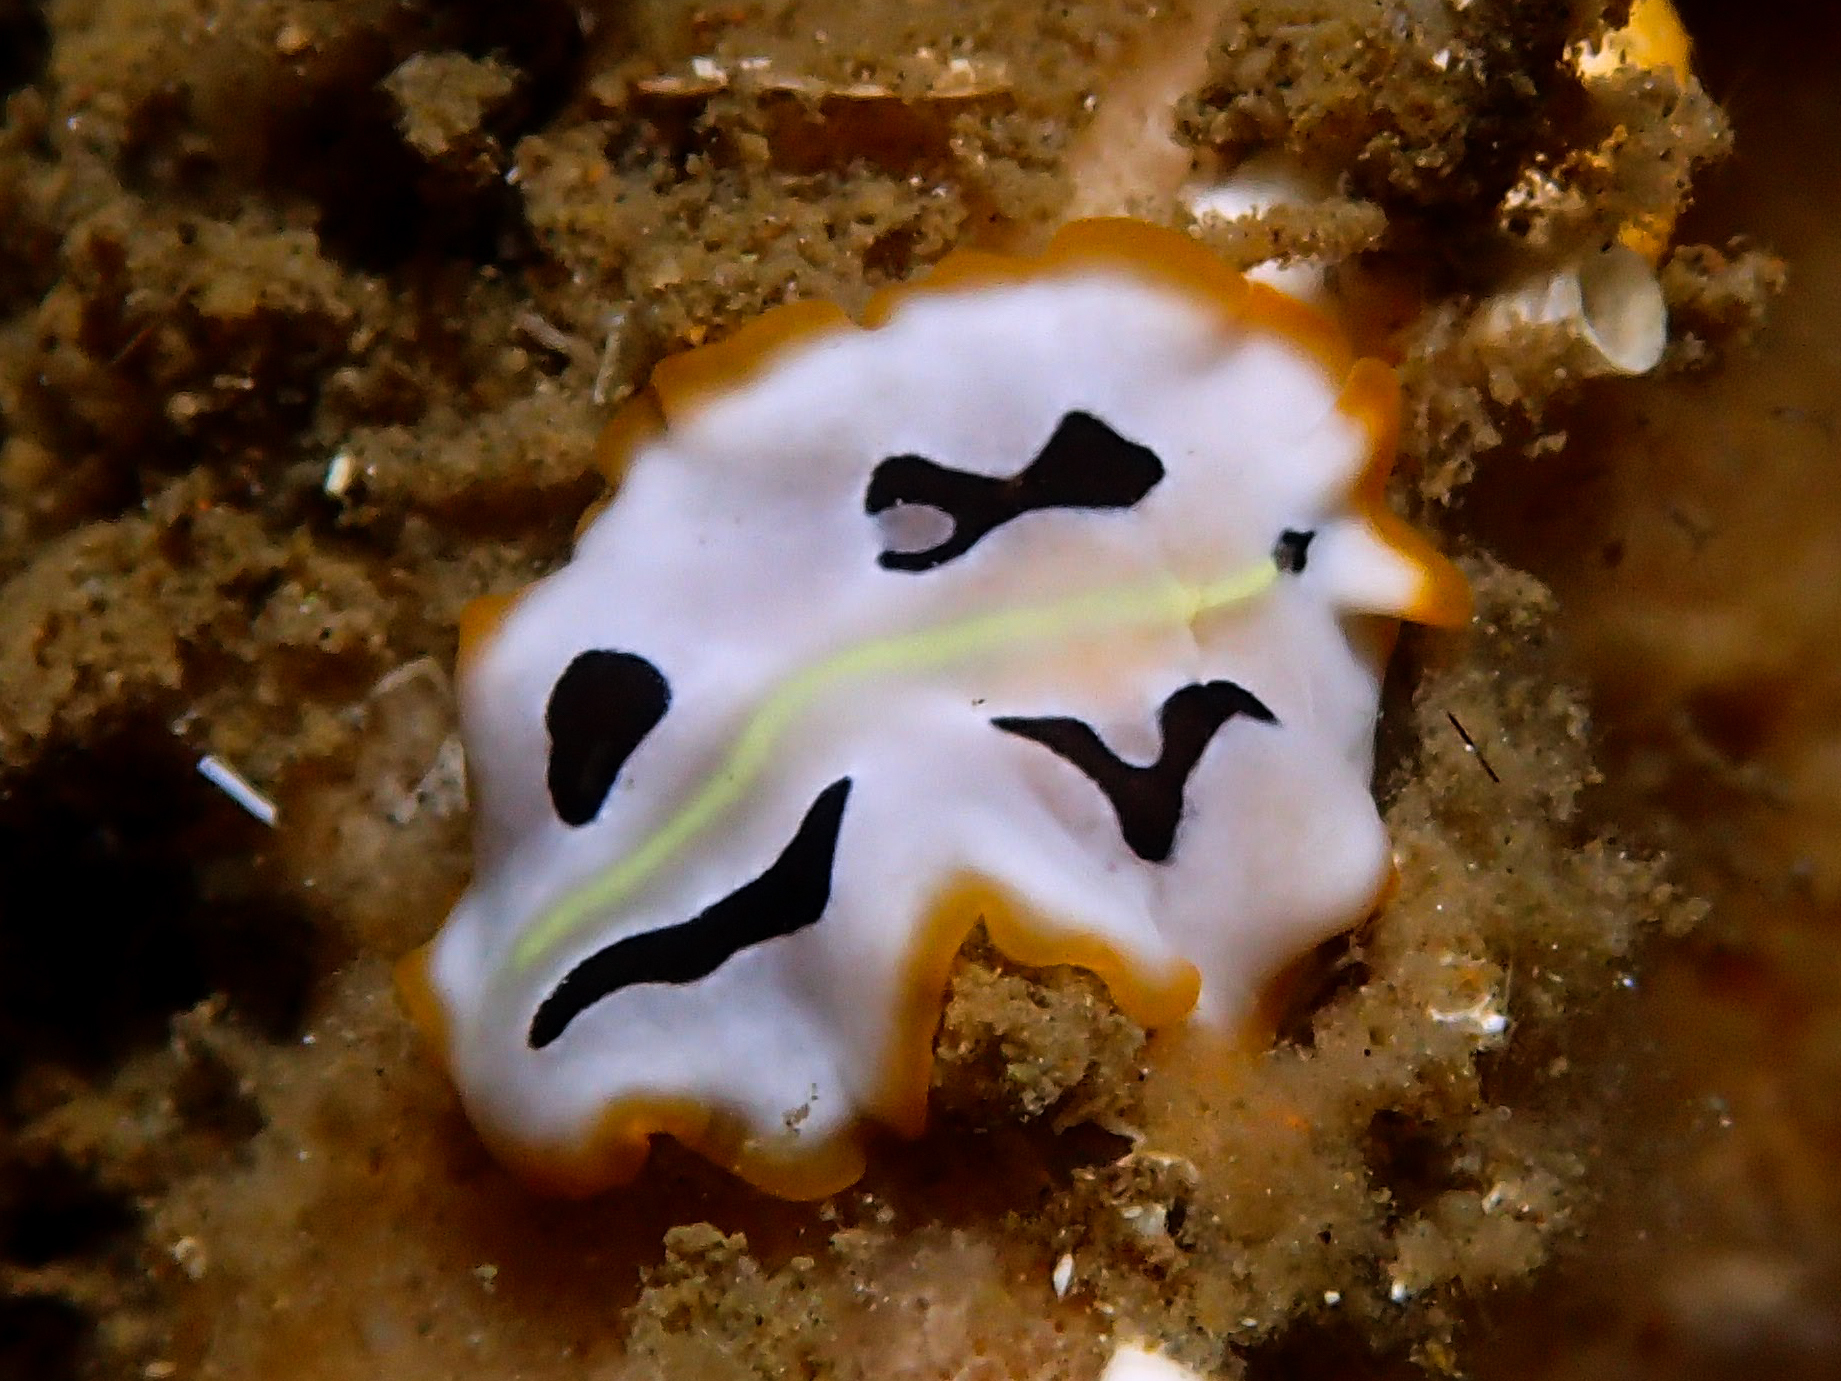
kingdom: Animalia
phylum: Platyhelminthes
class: Turbellaria
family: Pseudocerotidae
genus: Pseudoceros
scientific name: Pseudoceros scriptus
